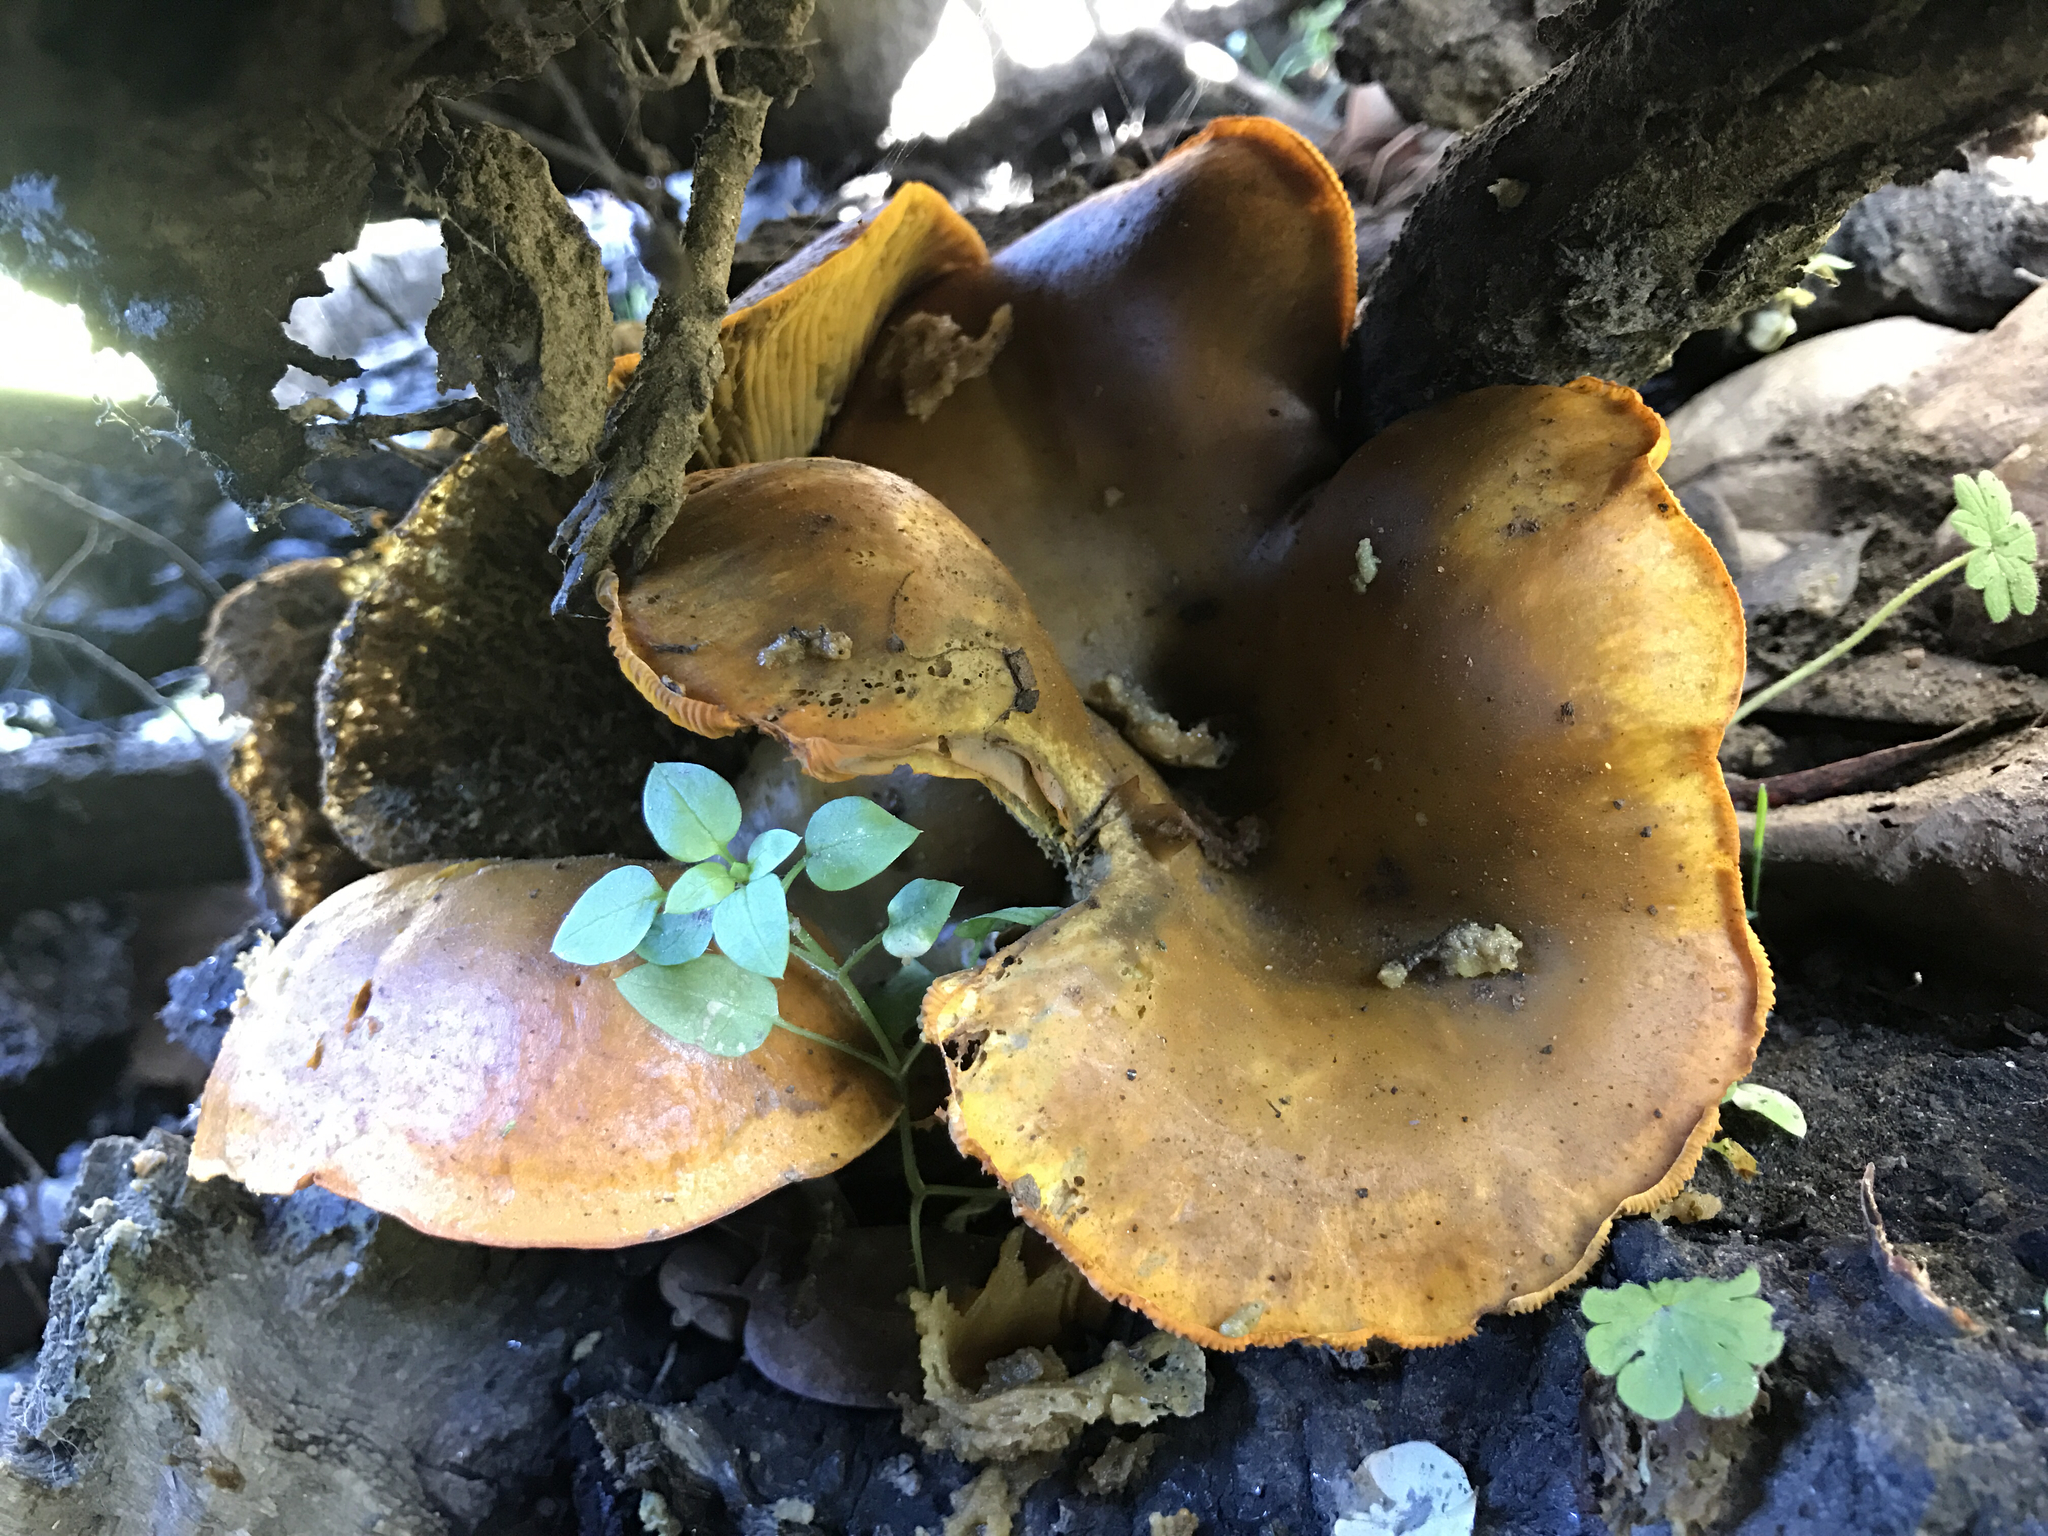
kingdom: Fungi
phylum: Basidiomycota
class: Agaricomycetes
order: Agaricales
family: Omphalotaceae
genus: Omphalotus
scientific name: Omphalotus olivascens
